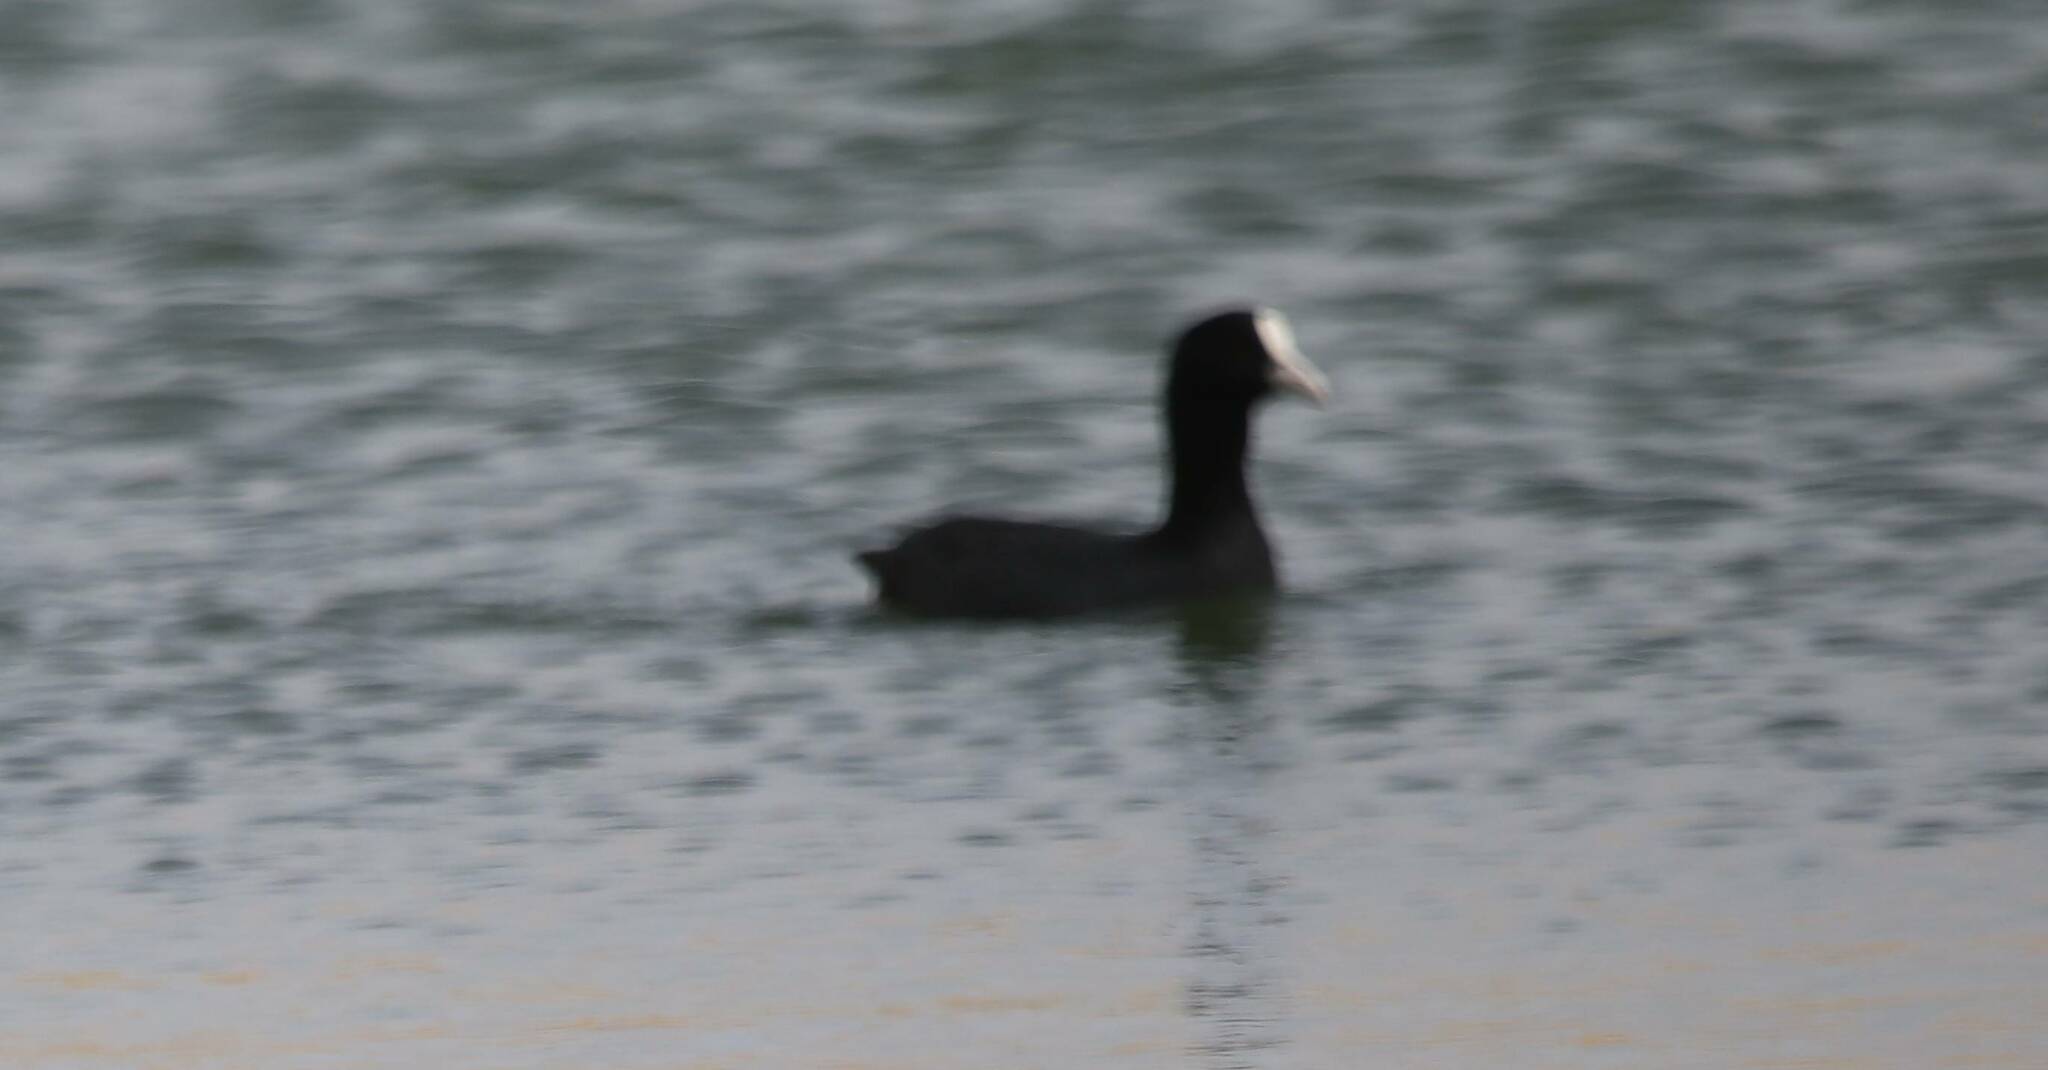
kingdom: Animalia
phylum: Chordata
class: Aves
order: Gruiformes
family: Rallidae
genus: Fulica
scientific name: Fulica atra
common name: Eurasian coot
